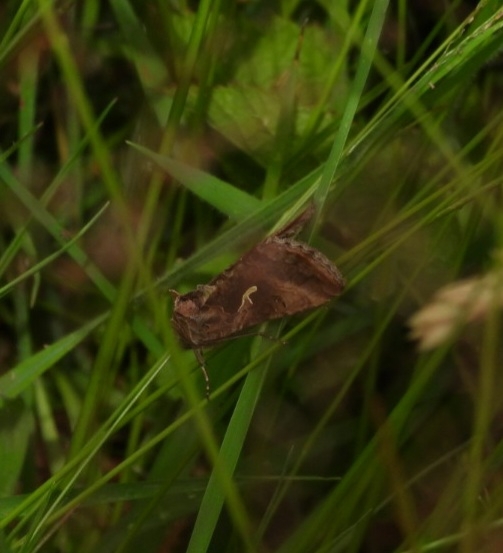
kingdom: Animalia
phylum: Arthropoda
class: Insecta
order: Lepidoptera
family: Noctuidae
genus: Autographa
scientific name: Autographa gamma
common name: Silver y
